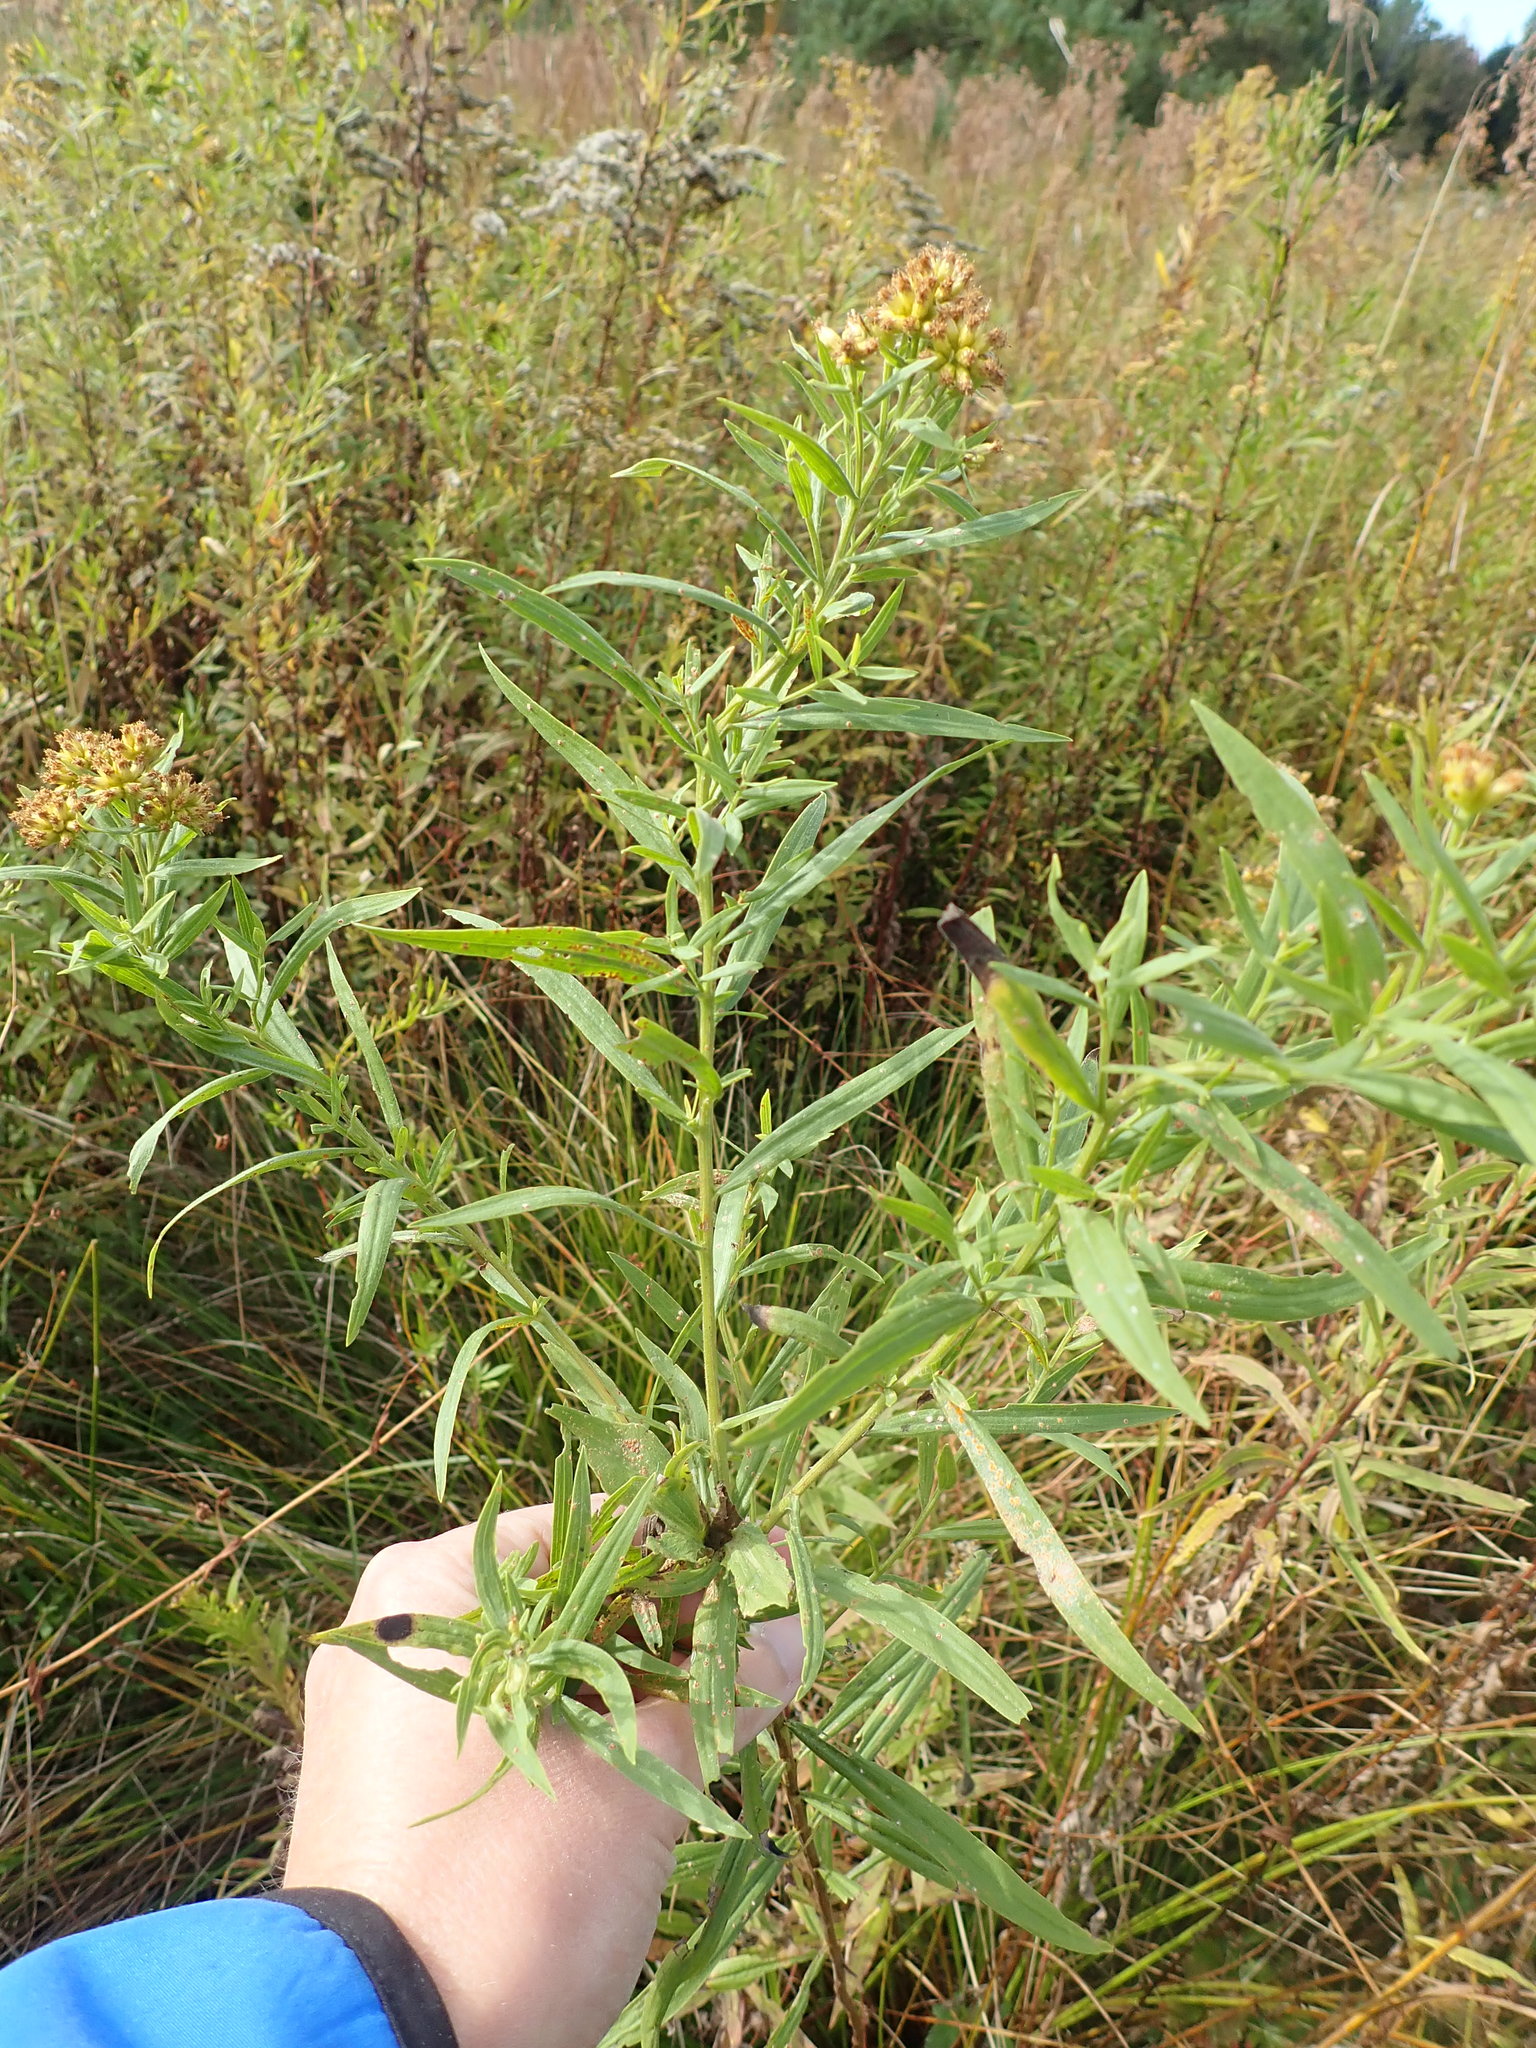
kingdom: Plantae
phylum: Tracheophyta
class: Magnoliopsida
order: Asterales
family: Asteraceae
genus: Euthamia
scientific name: Euthamia graminifolia
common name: Common goldentop
